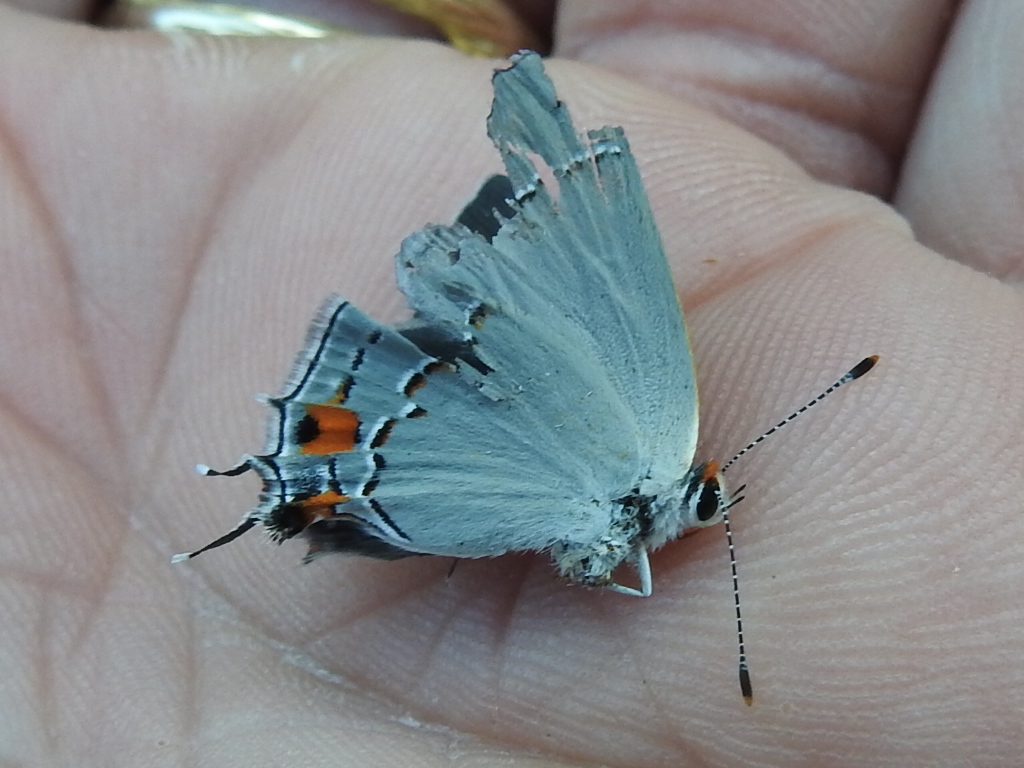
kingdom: Animalia
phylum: Arthropoda
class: Insecta
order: Lepidoptera
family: Lycaenidae
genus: Strymon
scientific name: Strymon melinus
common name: Gray hairstreak
